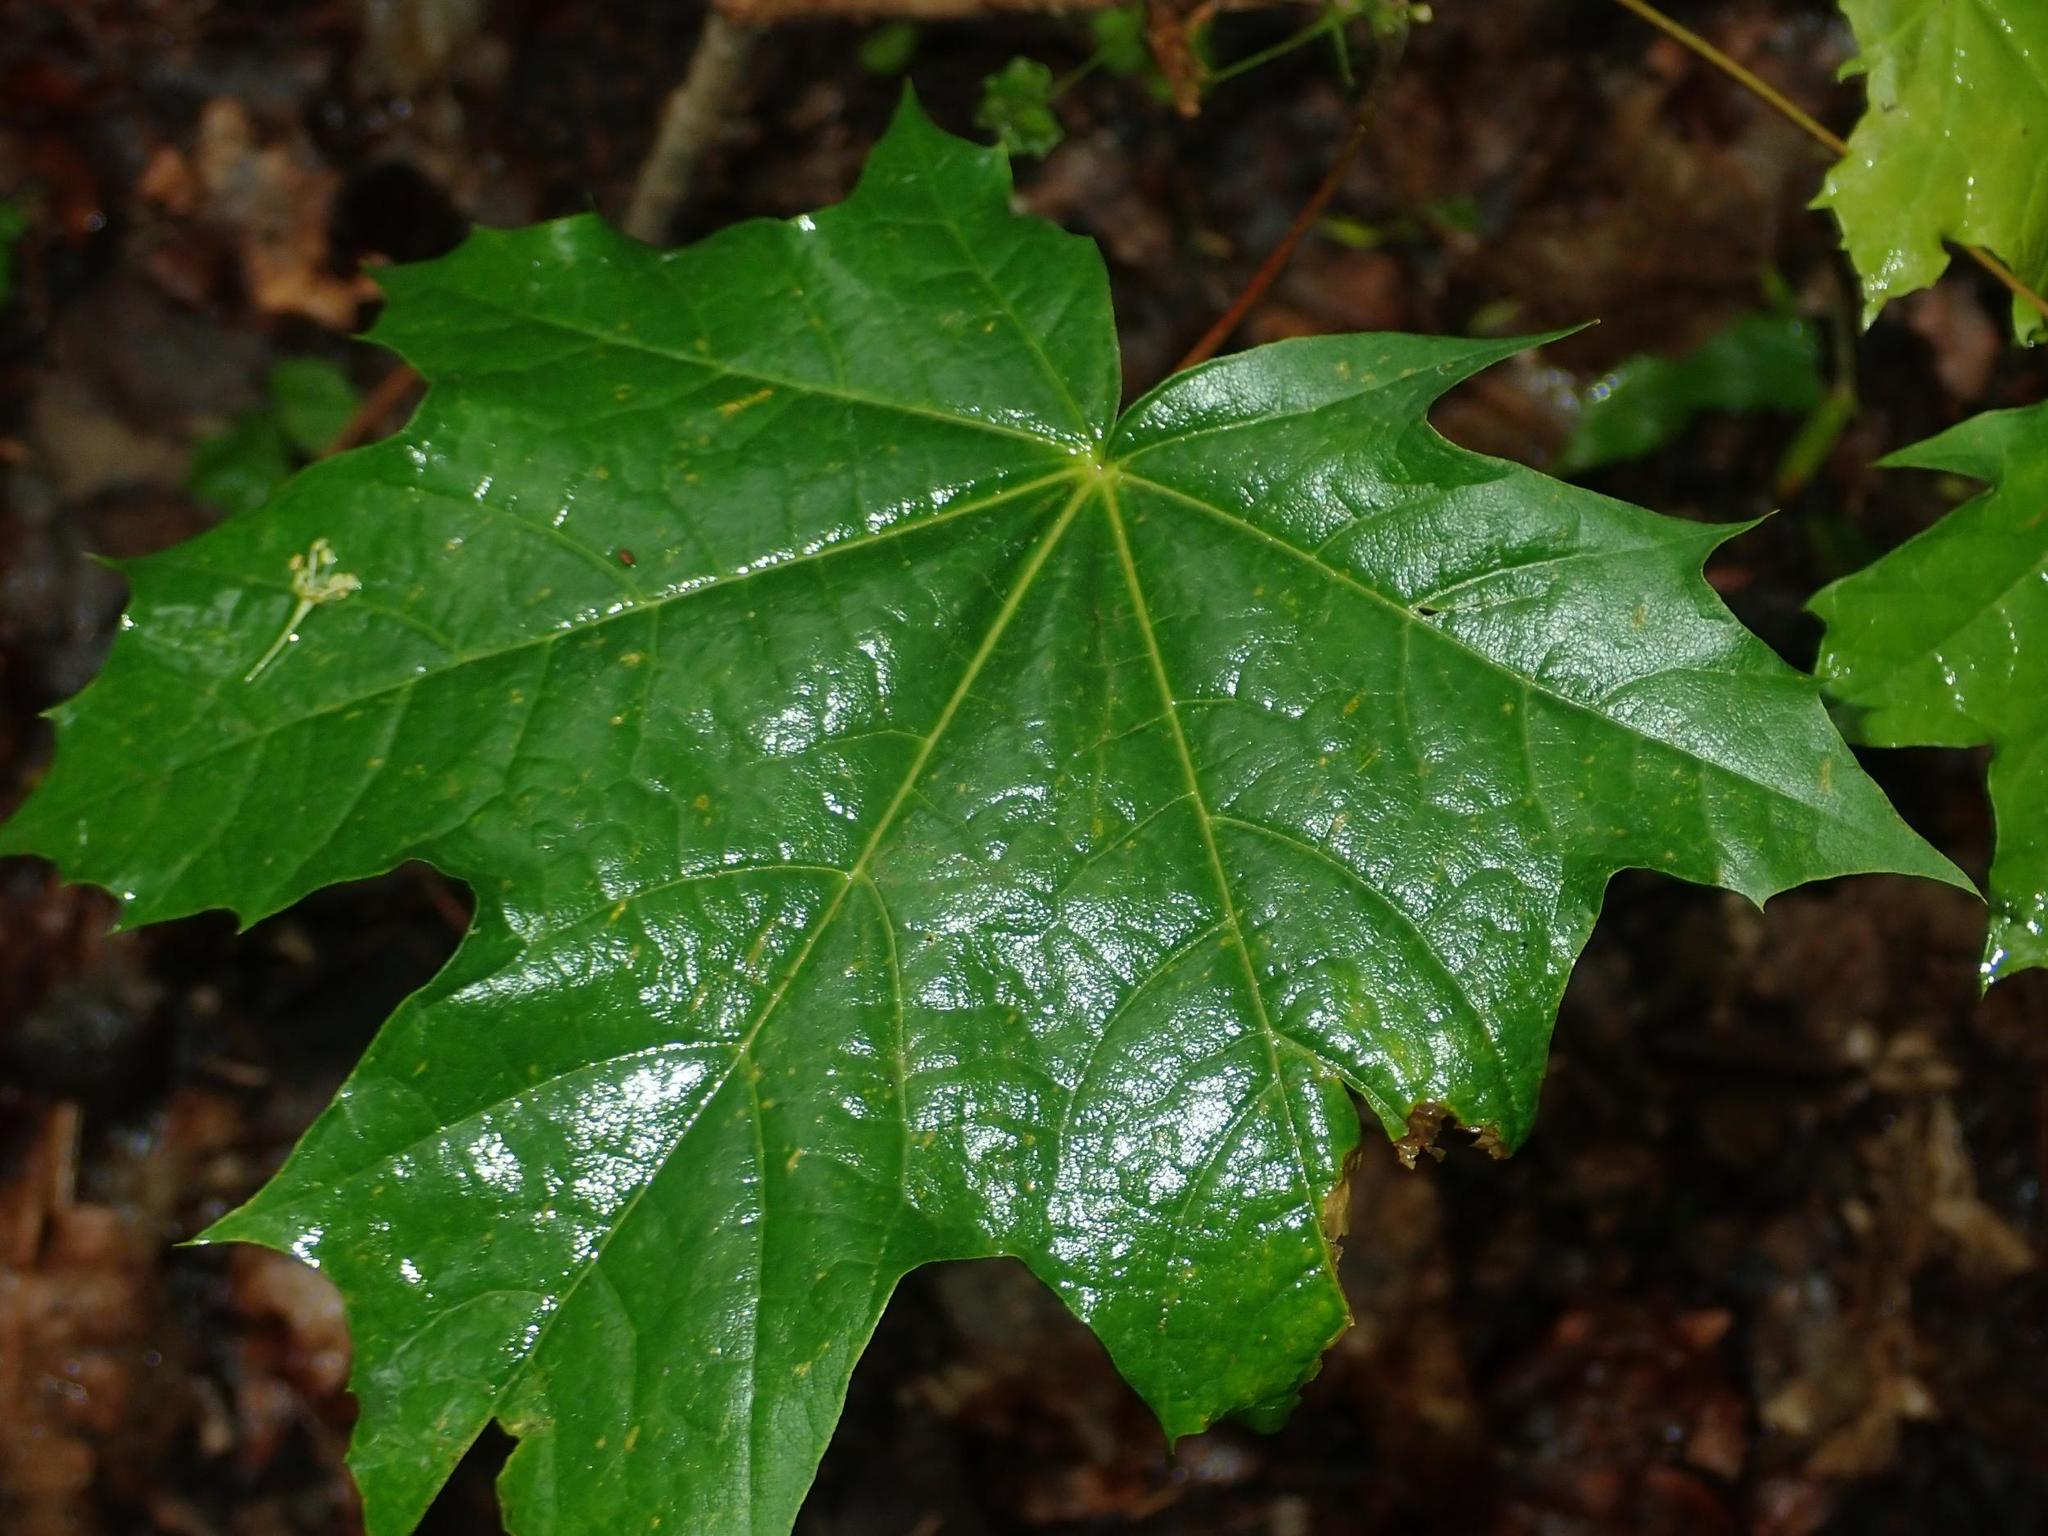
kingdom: Plantae
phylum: Tracheophyta
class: Magnoliopsida
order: Sapindales
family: Sapindaceae
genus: Acer
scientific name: Acer platanoides
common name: Norway maple
